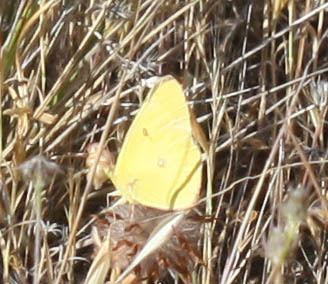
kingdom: Animalia
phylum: Arthropoda
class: Insecta
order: Lepidoptera
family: Pieridae
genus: Zerene
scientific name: Zerene eurydice
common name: California dogface
